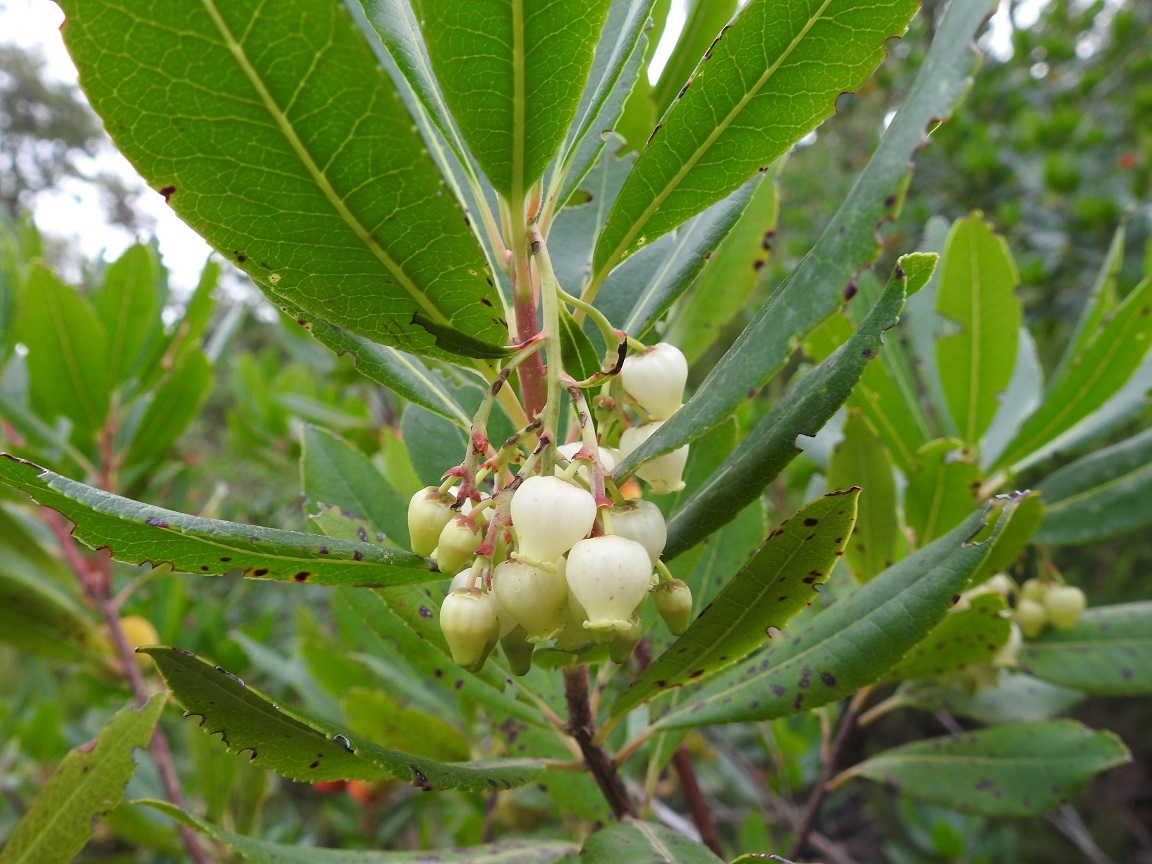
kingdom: Plantae
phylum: Tracheophyta
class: Magnoliopsida
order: Ericales
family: Ericaceae
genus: Arbutus
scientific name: Arbutus unedo
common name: Strawberry-tree
